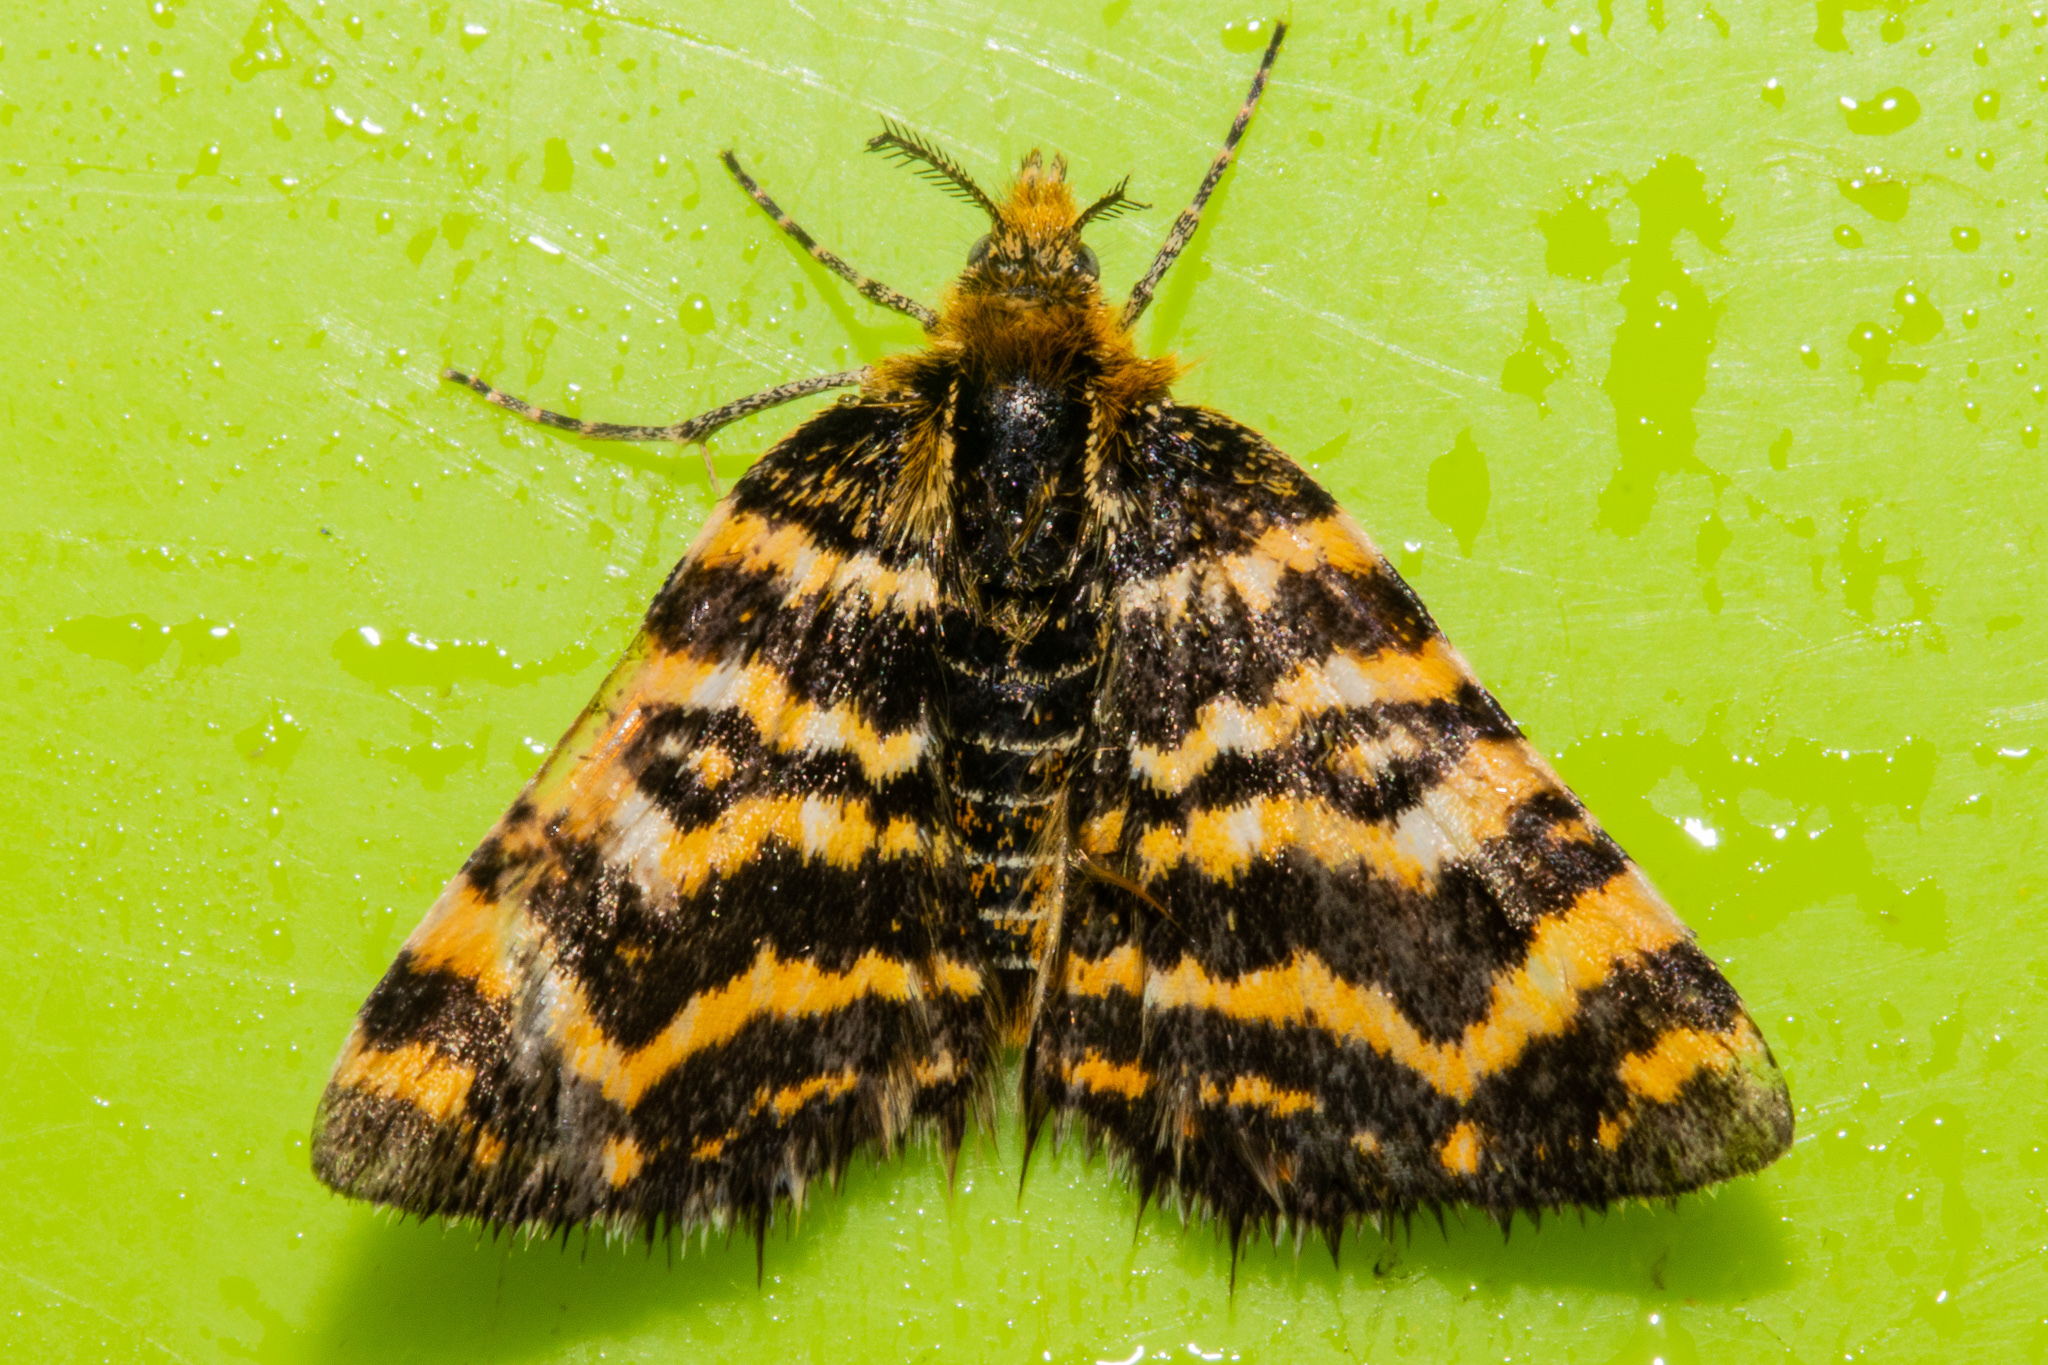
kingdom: Animalia
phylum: Arthropoda
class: Insecta
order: Lepidoptera
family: Geometridae
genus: Notoreas
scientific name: Notoreas galaxias
